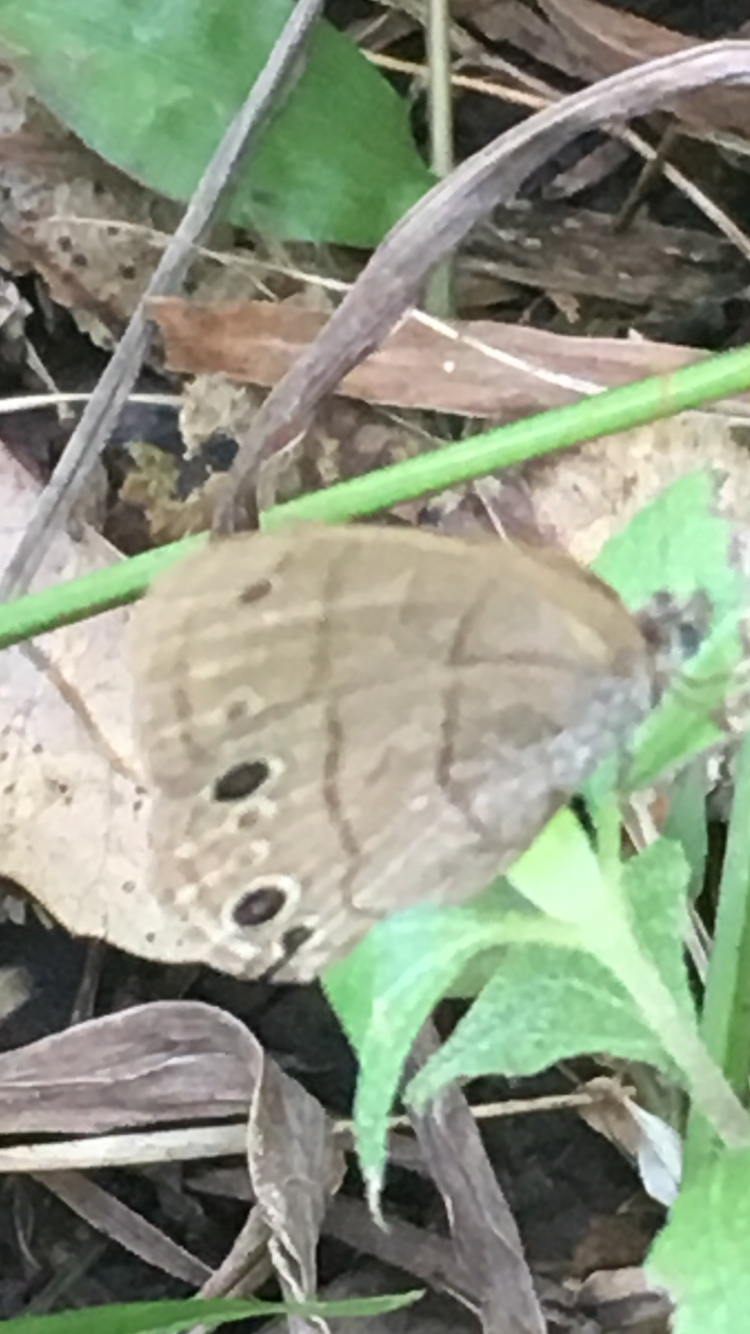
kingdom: Animalia
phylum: Arthropoda
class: Insecta
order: Lepidoptera
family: Nymphalidae
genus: Hermeuptychia
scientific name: Hermeuptychia hermes
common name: Hermes satyr
